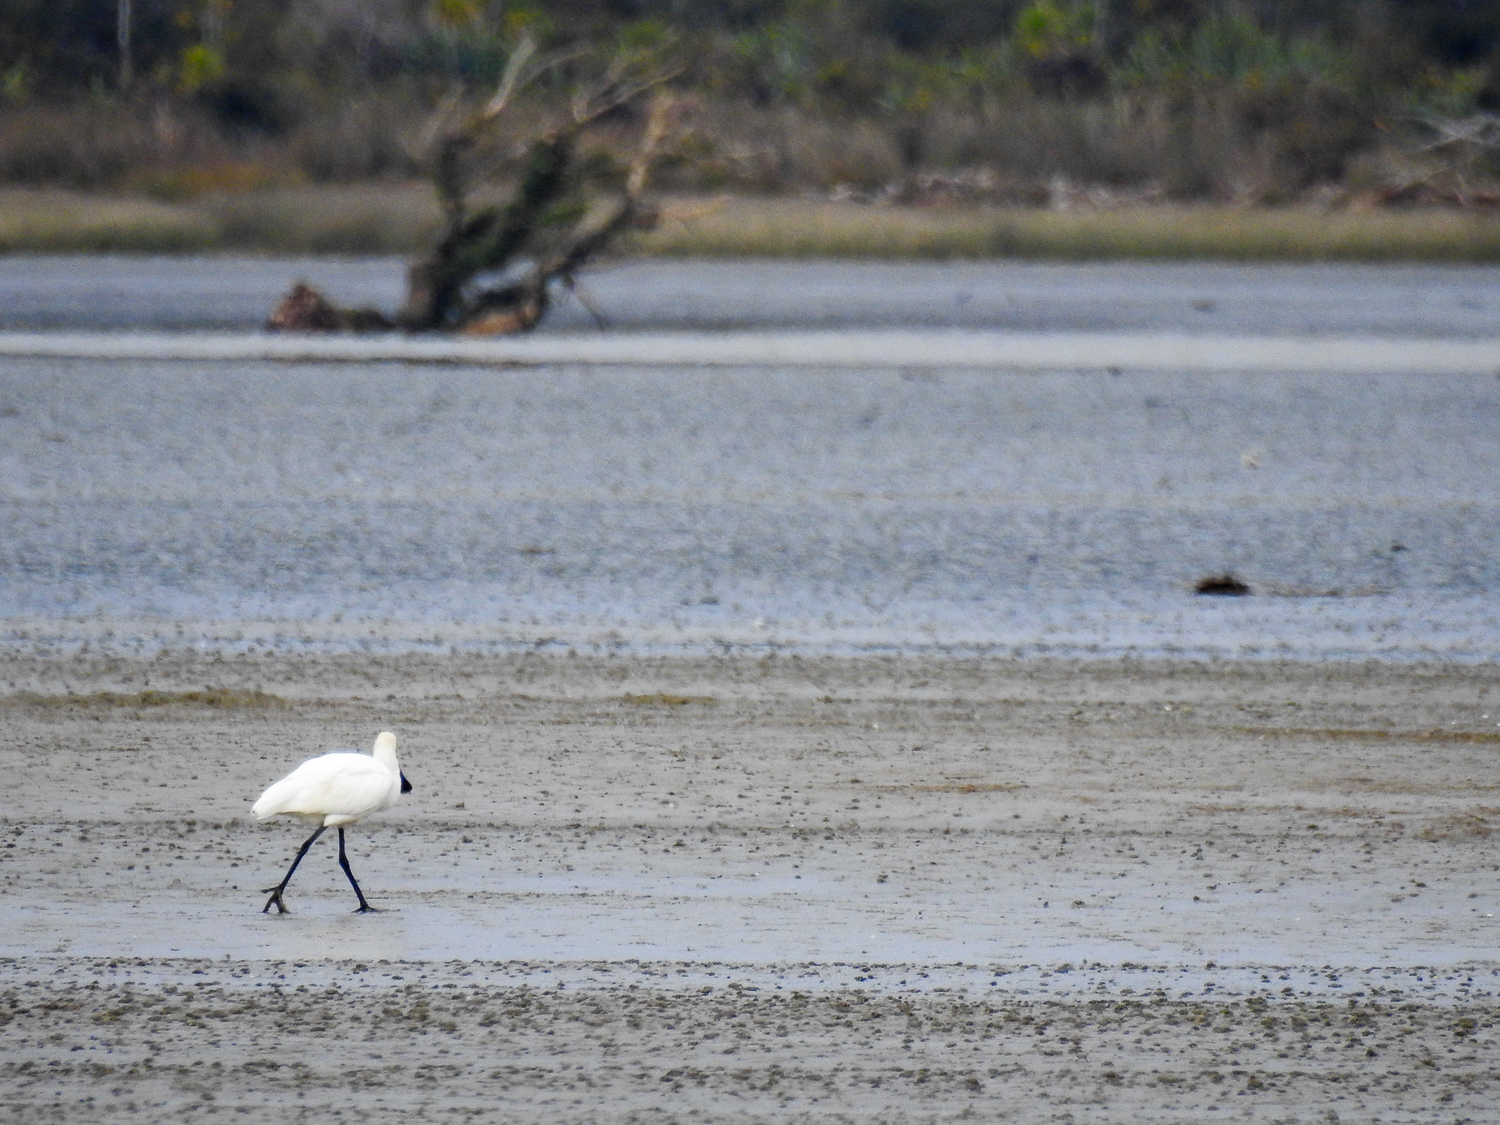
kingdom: Animalia
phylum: Chordata
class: Aves
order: Pelecaniformes
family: Threskiornithidae
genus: Platalea
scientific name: Platalea regia
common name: Royal spoonbill
